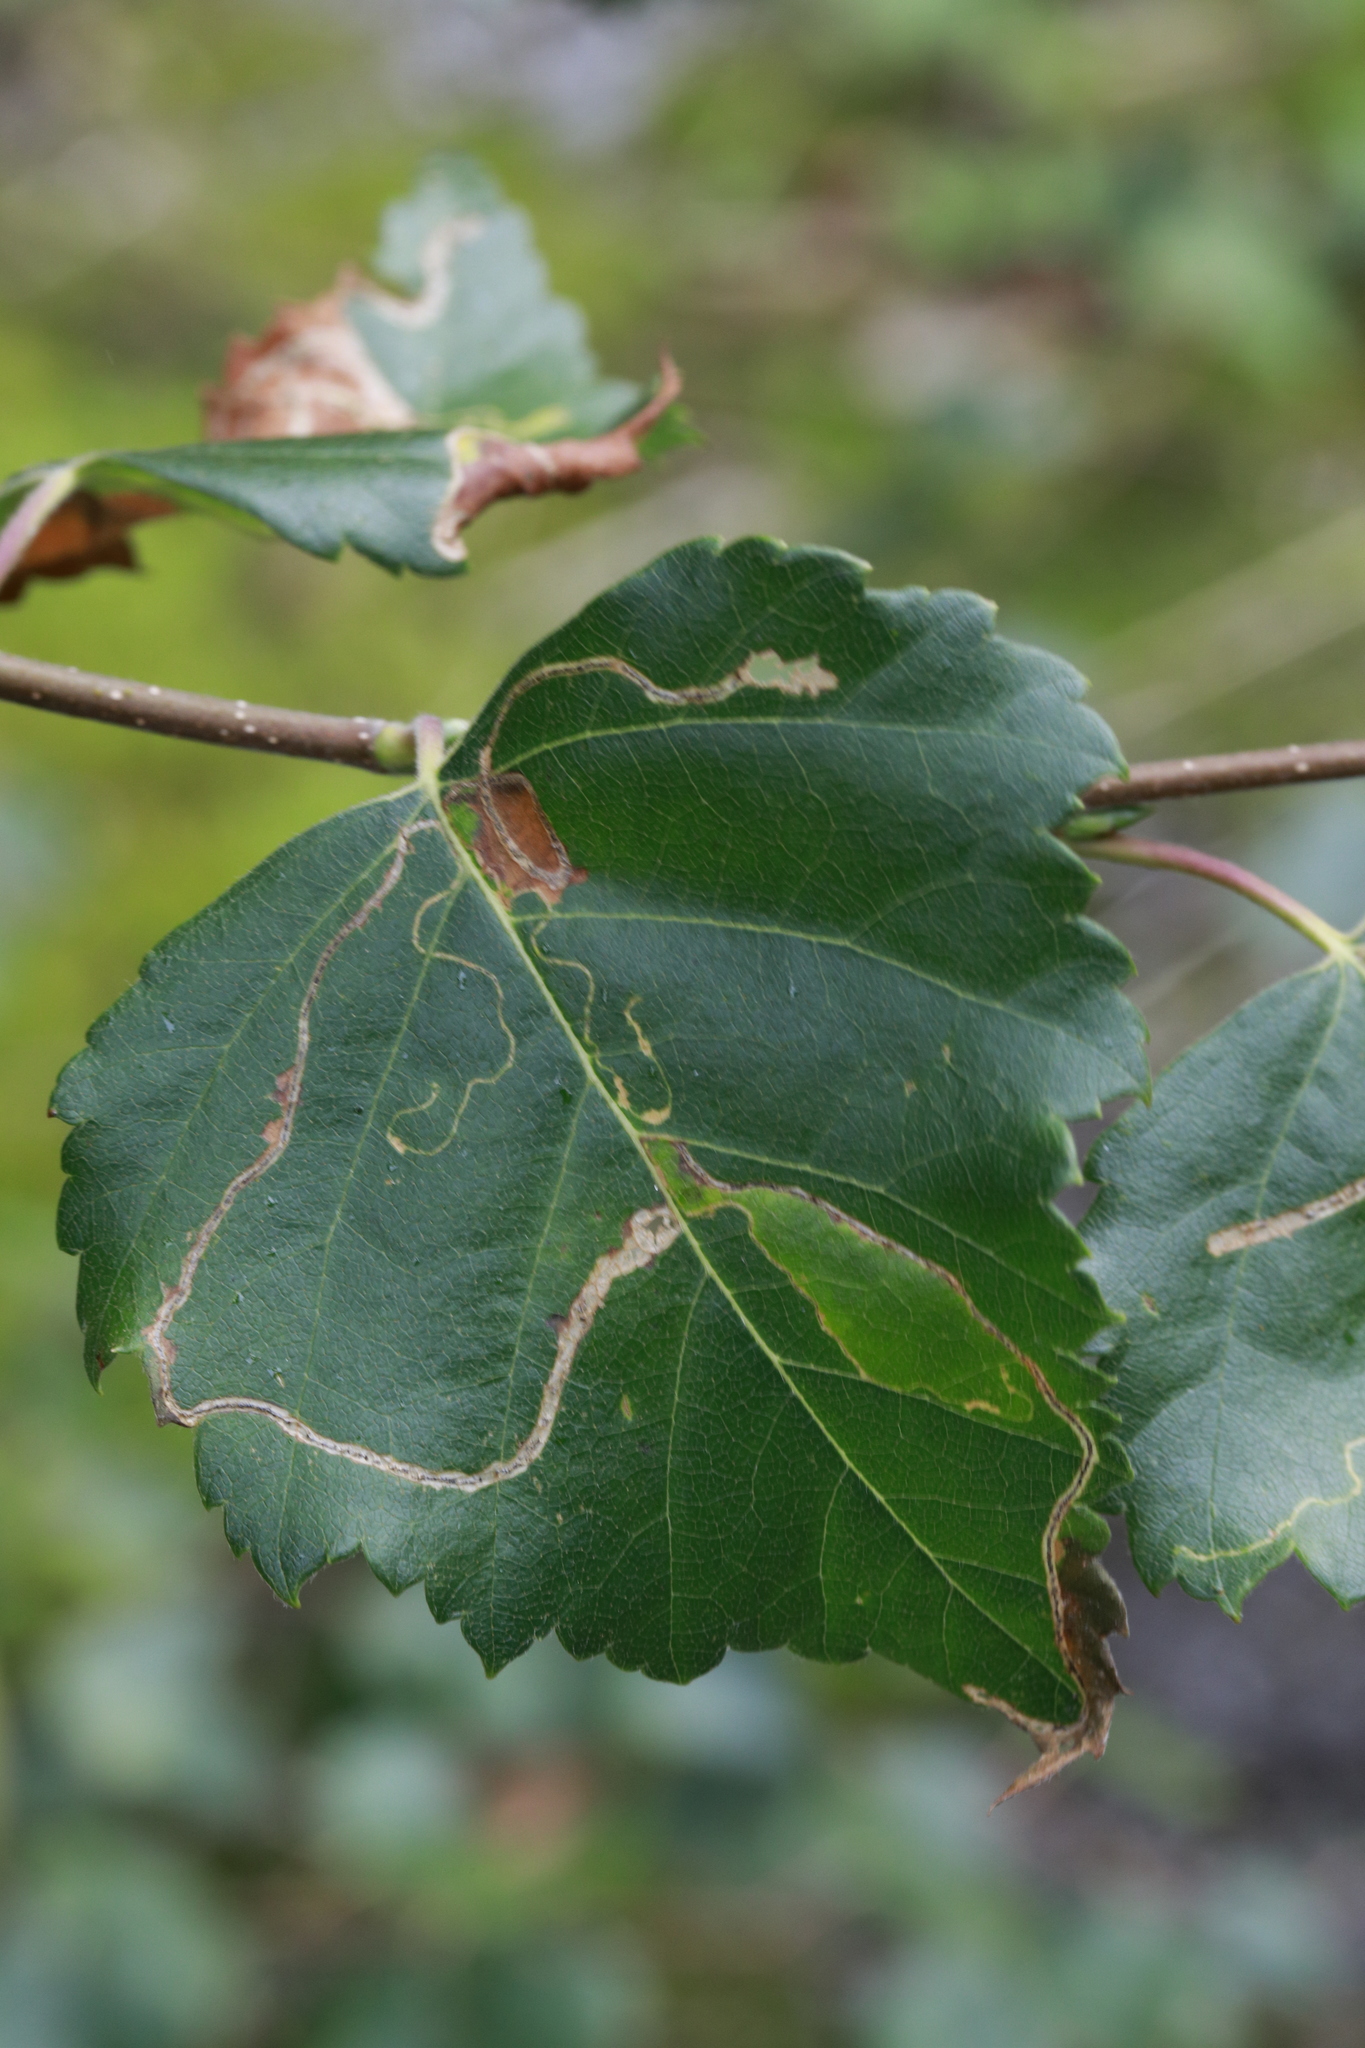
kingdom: Animalia
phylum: Arthropoda
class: Insecta
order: Lepidoptera
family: Lyonetiidae
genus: Lyonetia
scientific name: Lyonetia clerkella
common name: Apple leaf miner
